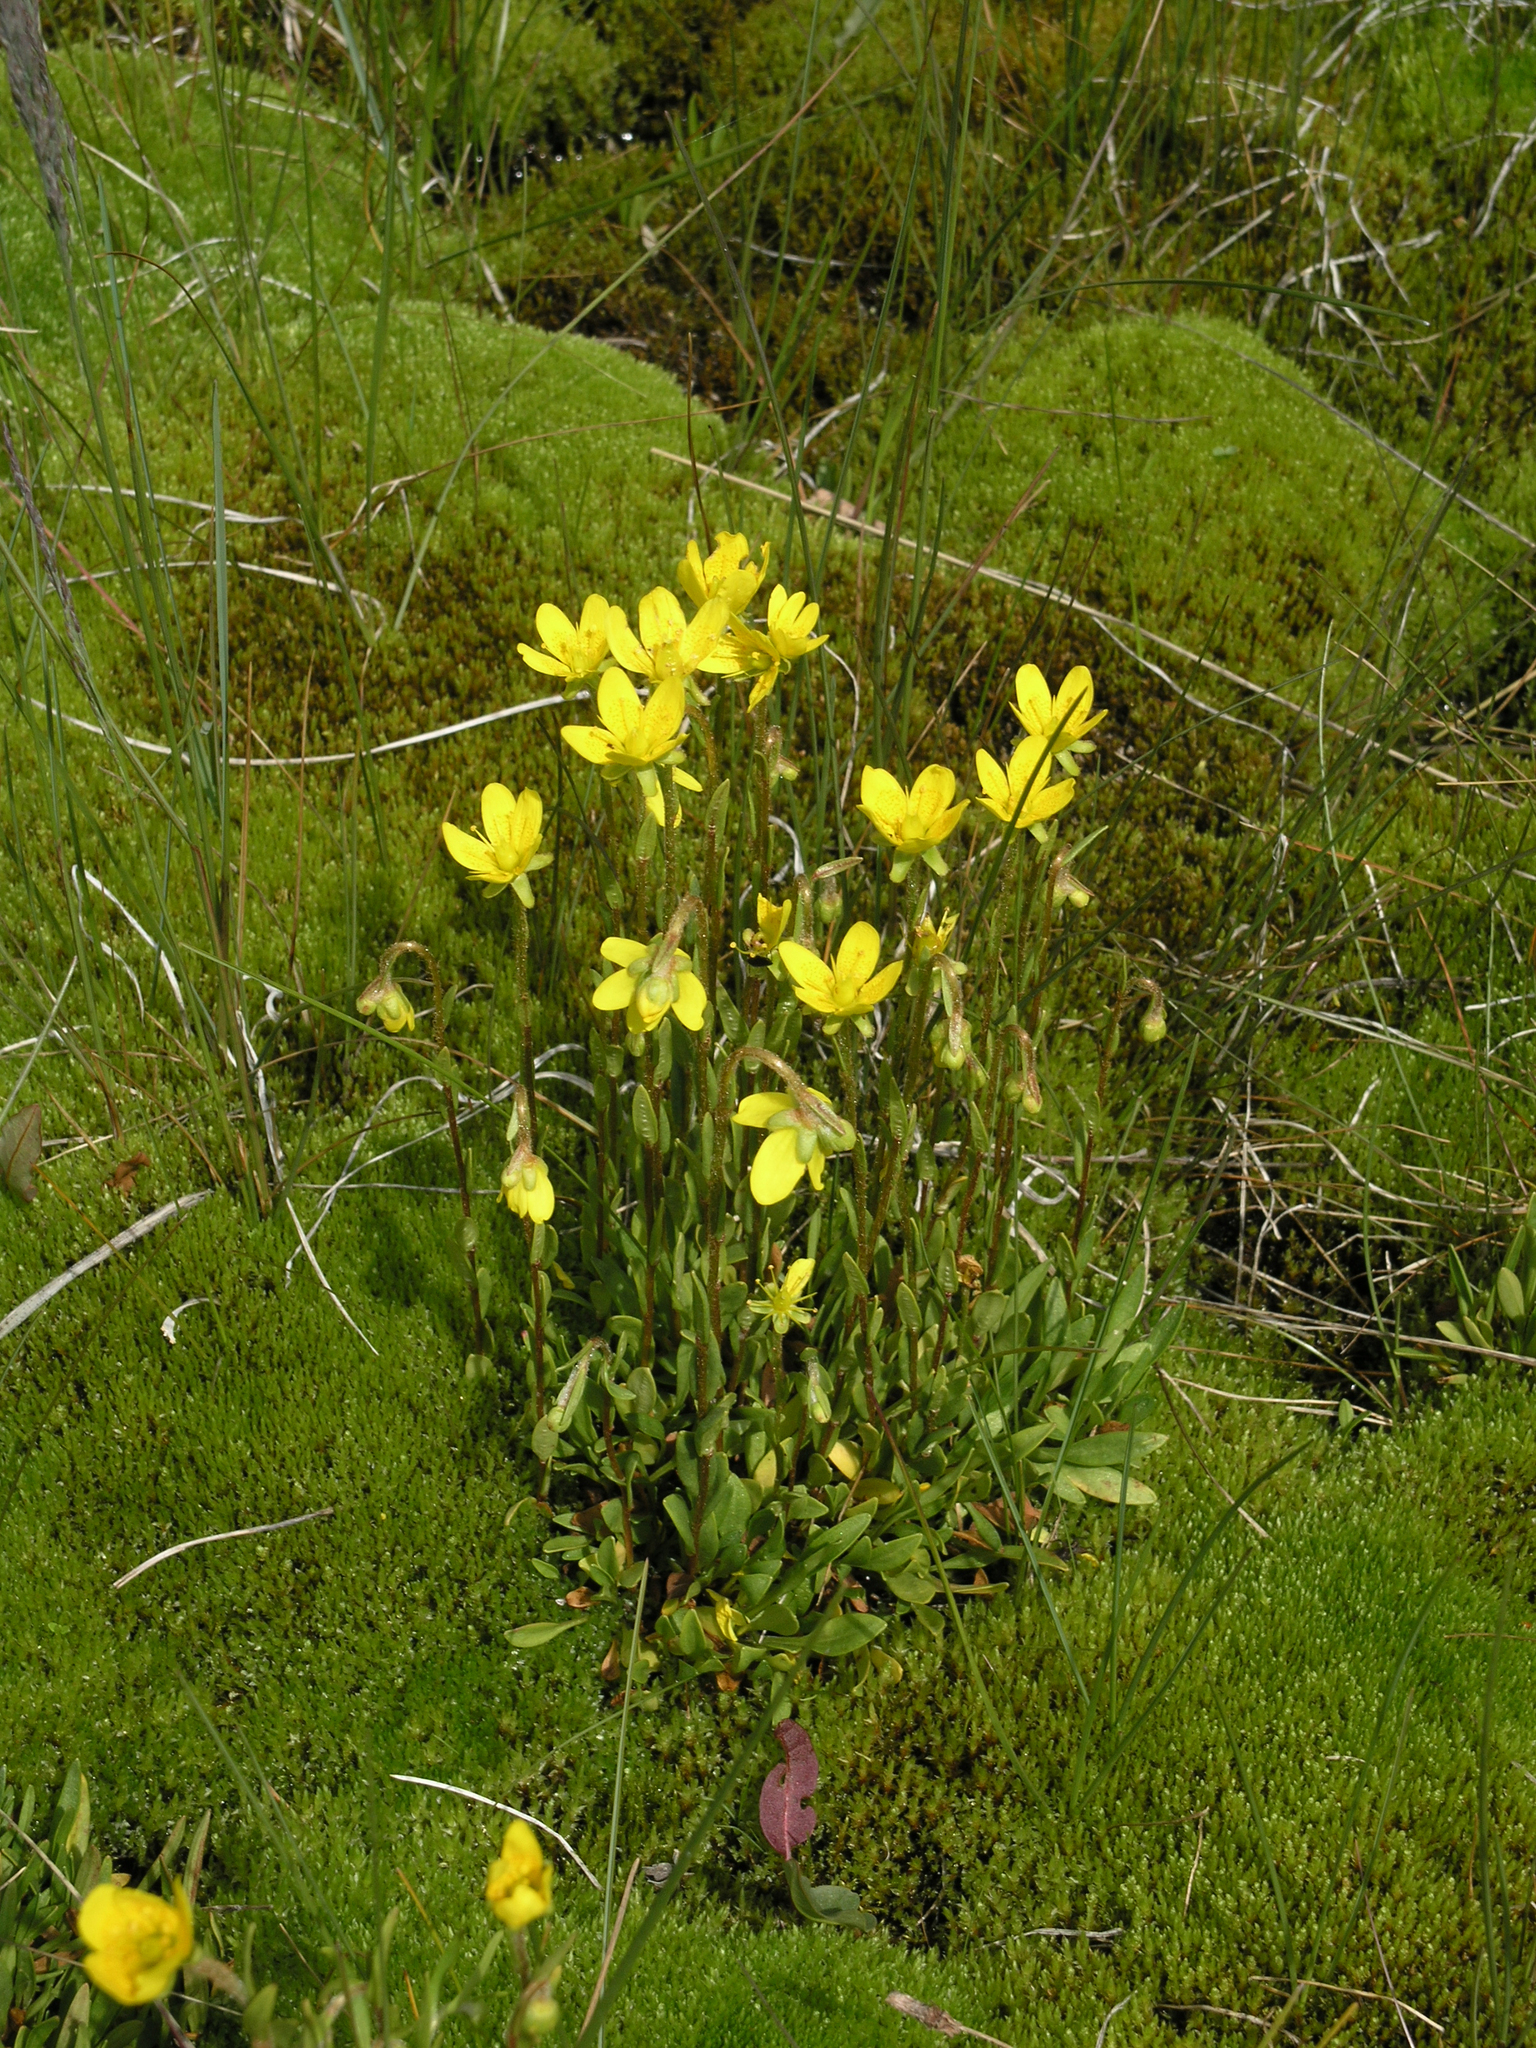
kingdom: Plantae
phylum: Tracheophyta
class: Magnoliopsida
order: Saxifragales
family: Saxifragaceae
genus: Saxifraga
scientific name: Saxifraga hirculus
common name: Yellow marsh saxifrage
